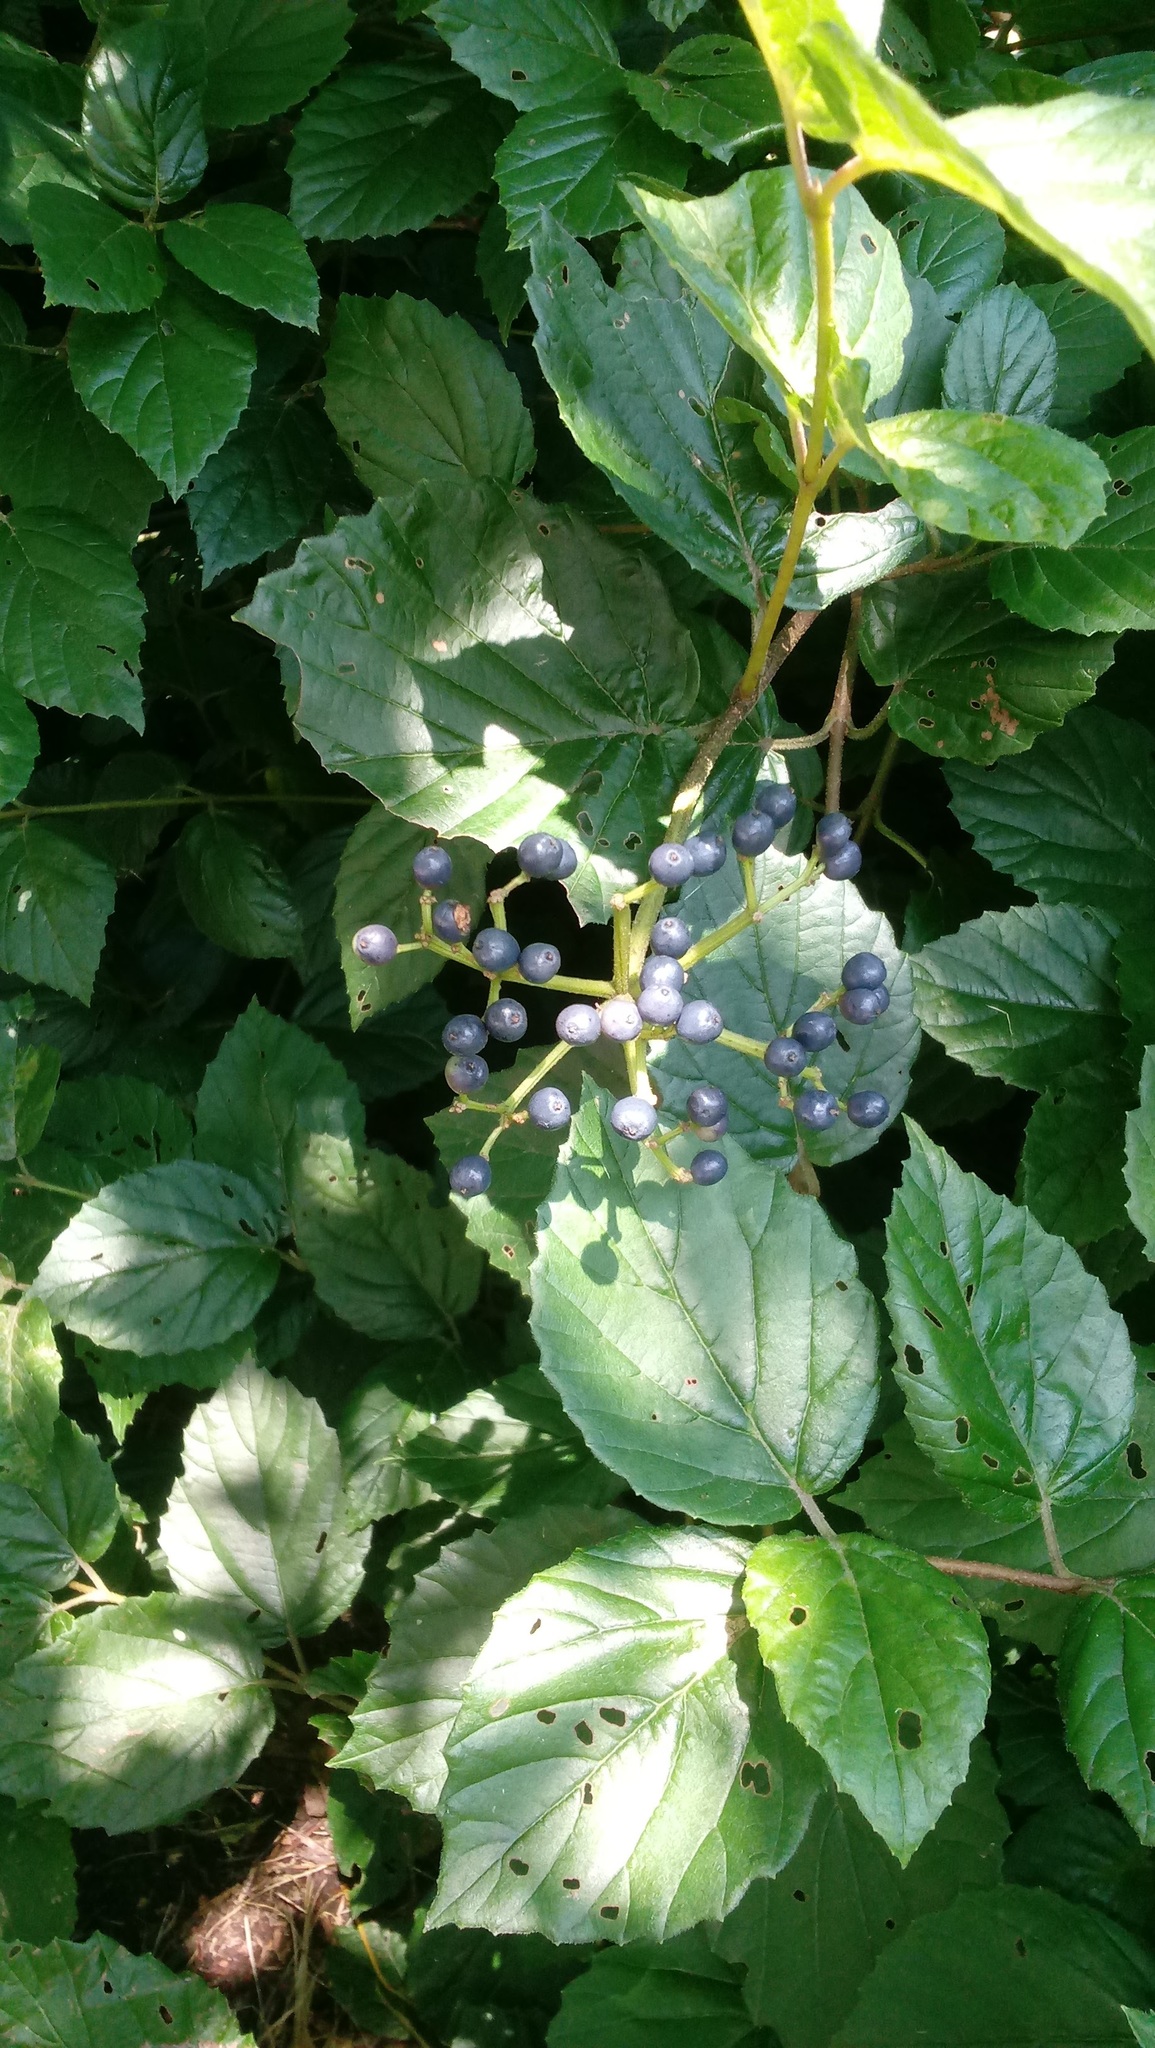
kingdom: Plantae
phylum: Tracheophyta
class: Magnoliopsida
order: Dipsacales
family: Viburnaceae
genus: Viburnum
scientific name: Viburnum dentatum
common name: Arrow-wood
